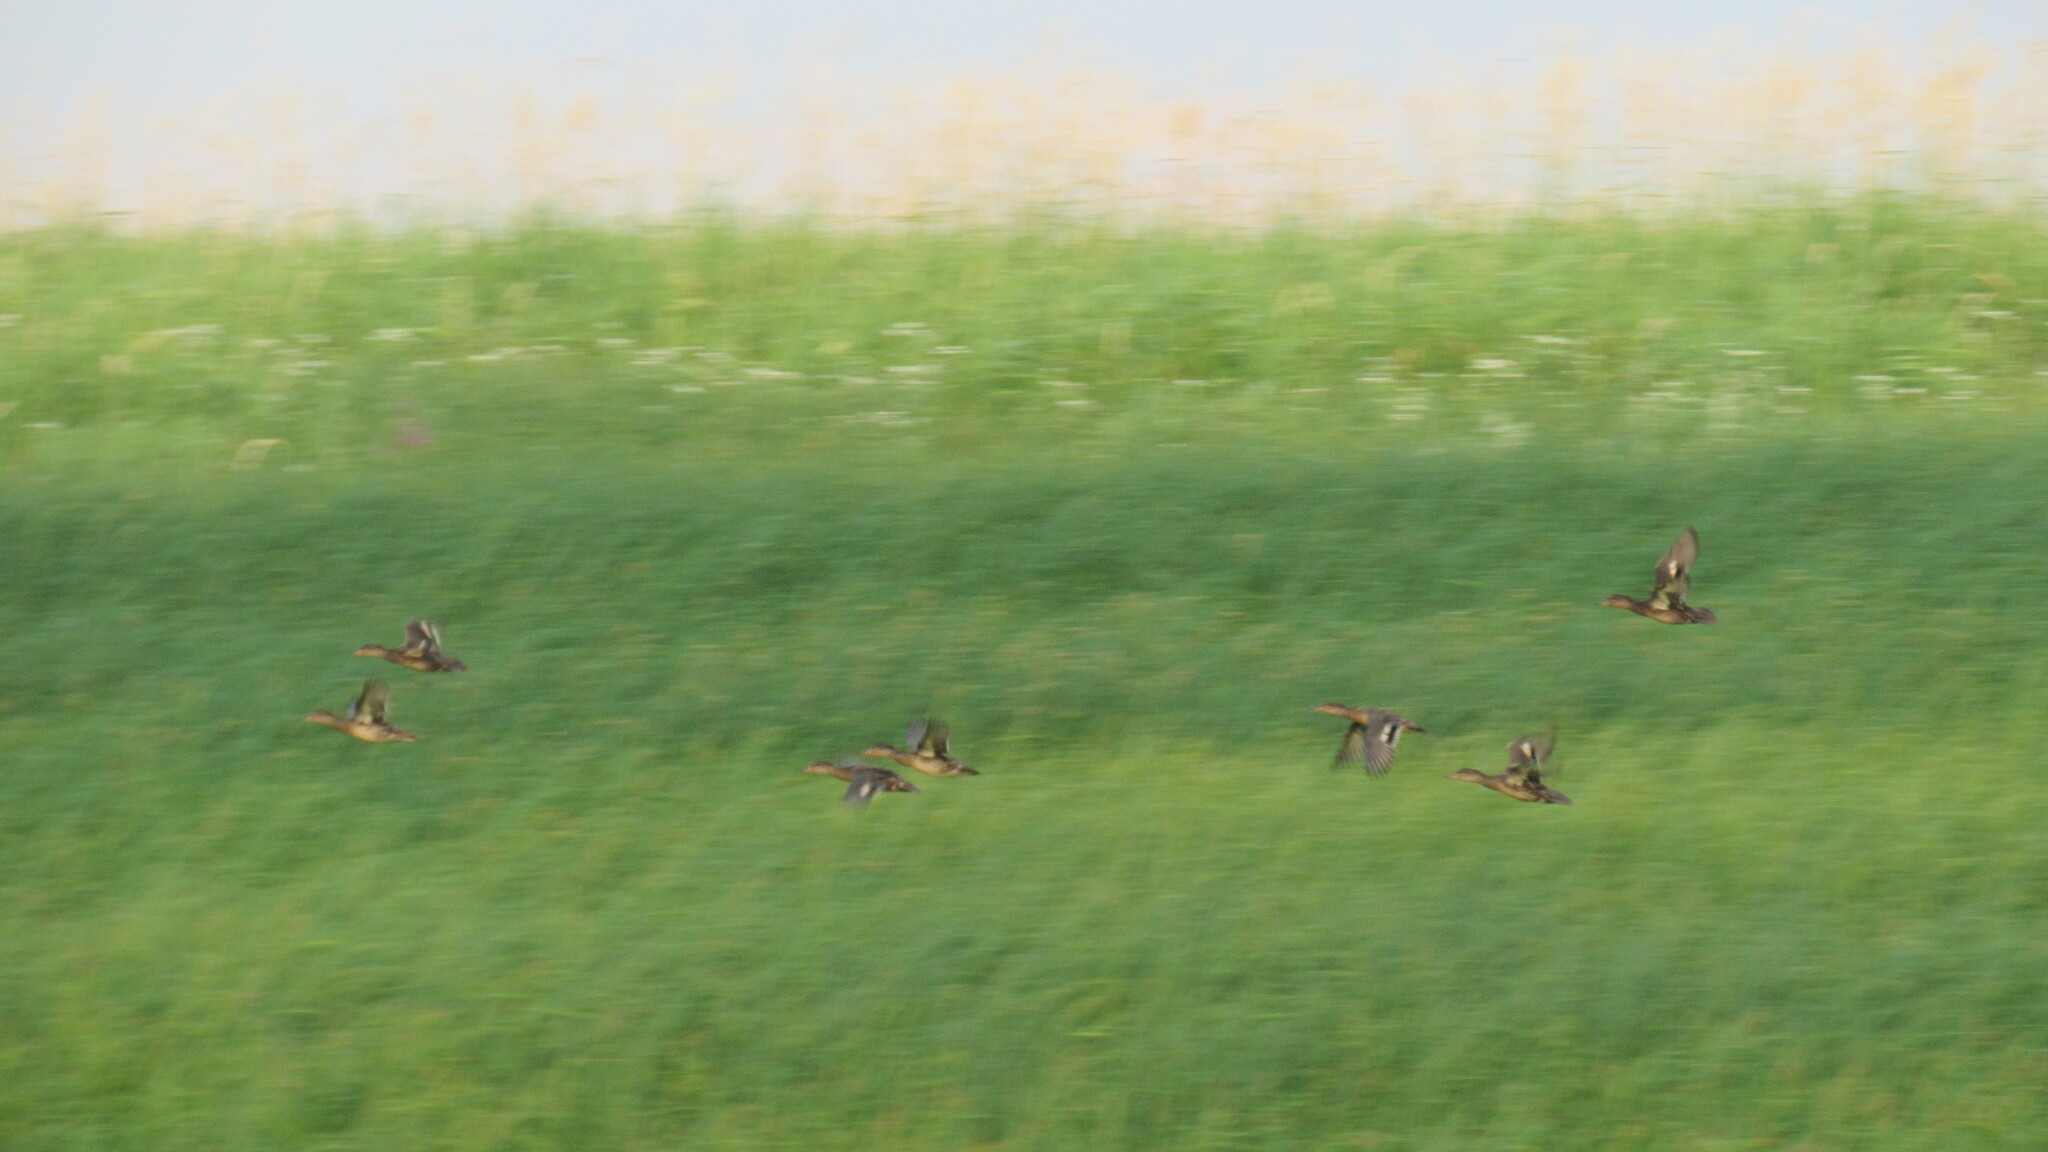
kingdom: Animalia
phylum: Chordata
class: Aves
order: Anseriformes
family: Anatidae
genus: Anas
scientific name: Anas crecca
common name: Eurasian teal
